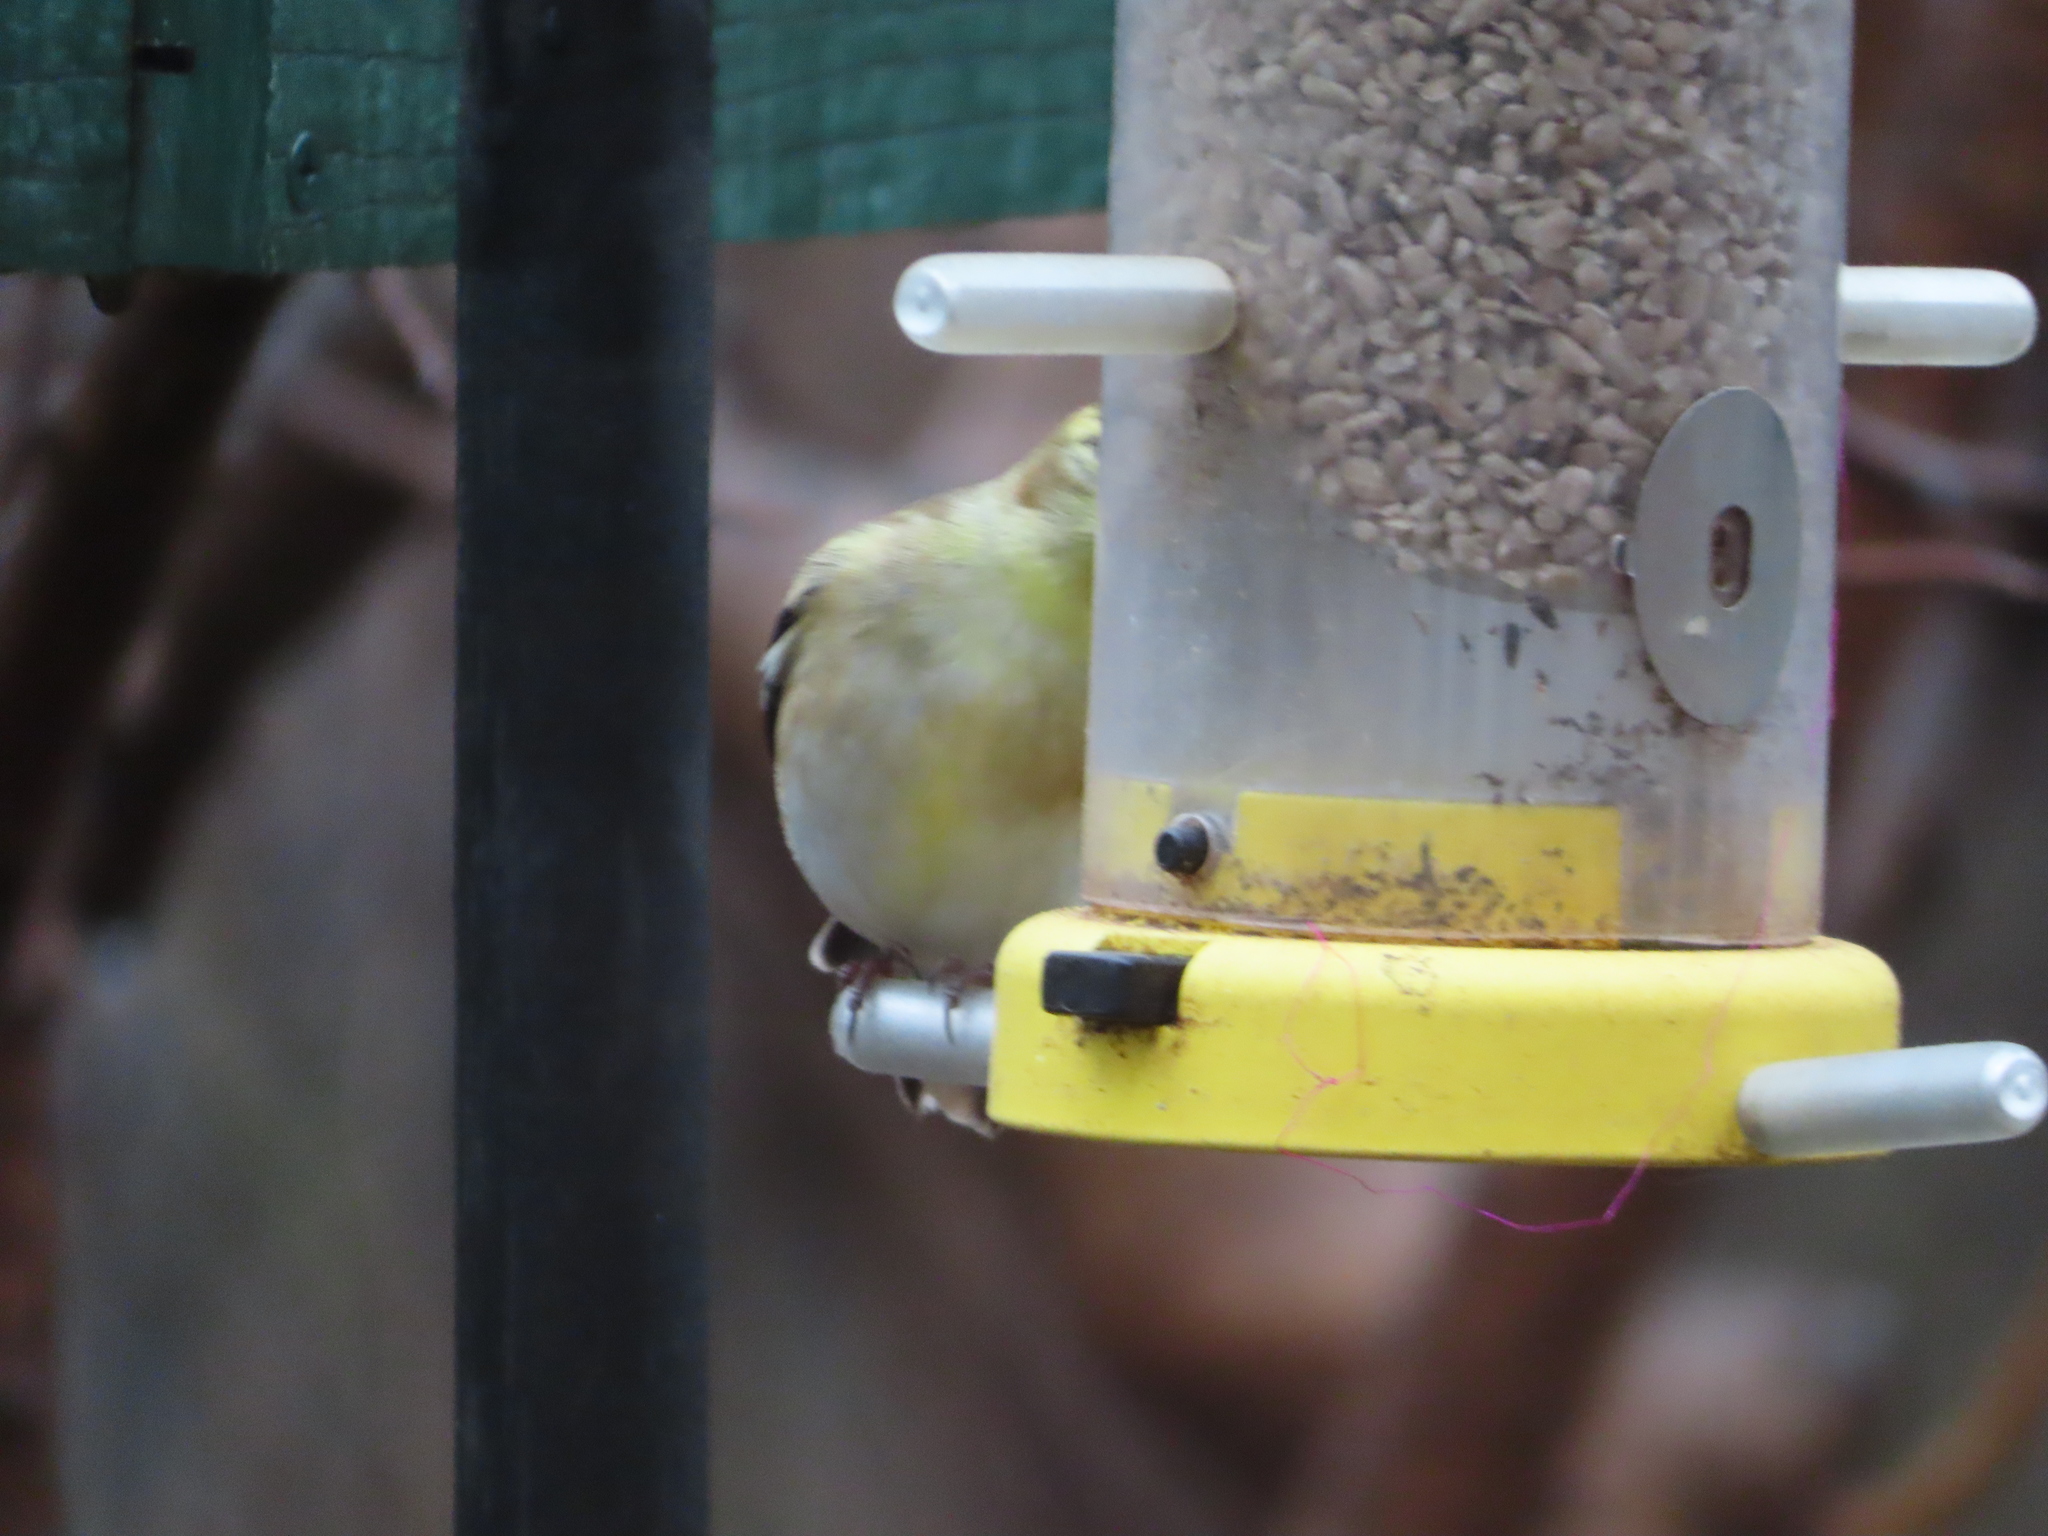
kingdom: Animalia
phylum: Chordata
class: Aves
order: Passeriformes
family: Fringillidae
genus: Spinus
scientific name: Spinus tristis
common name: American goldfinch
